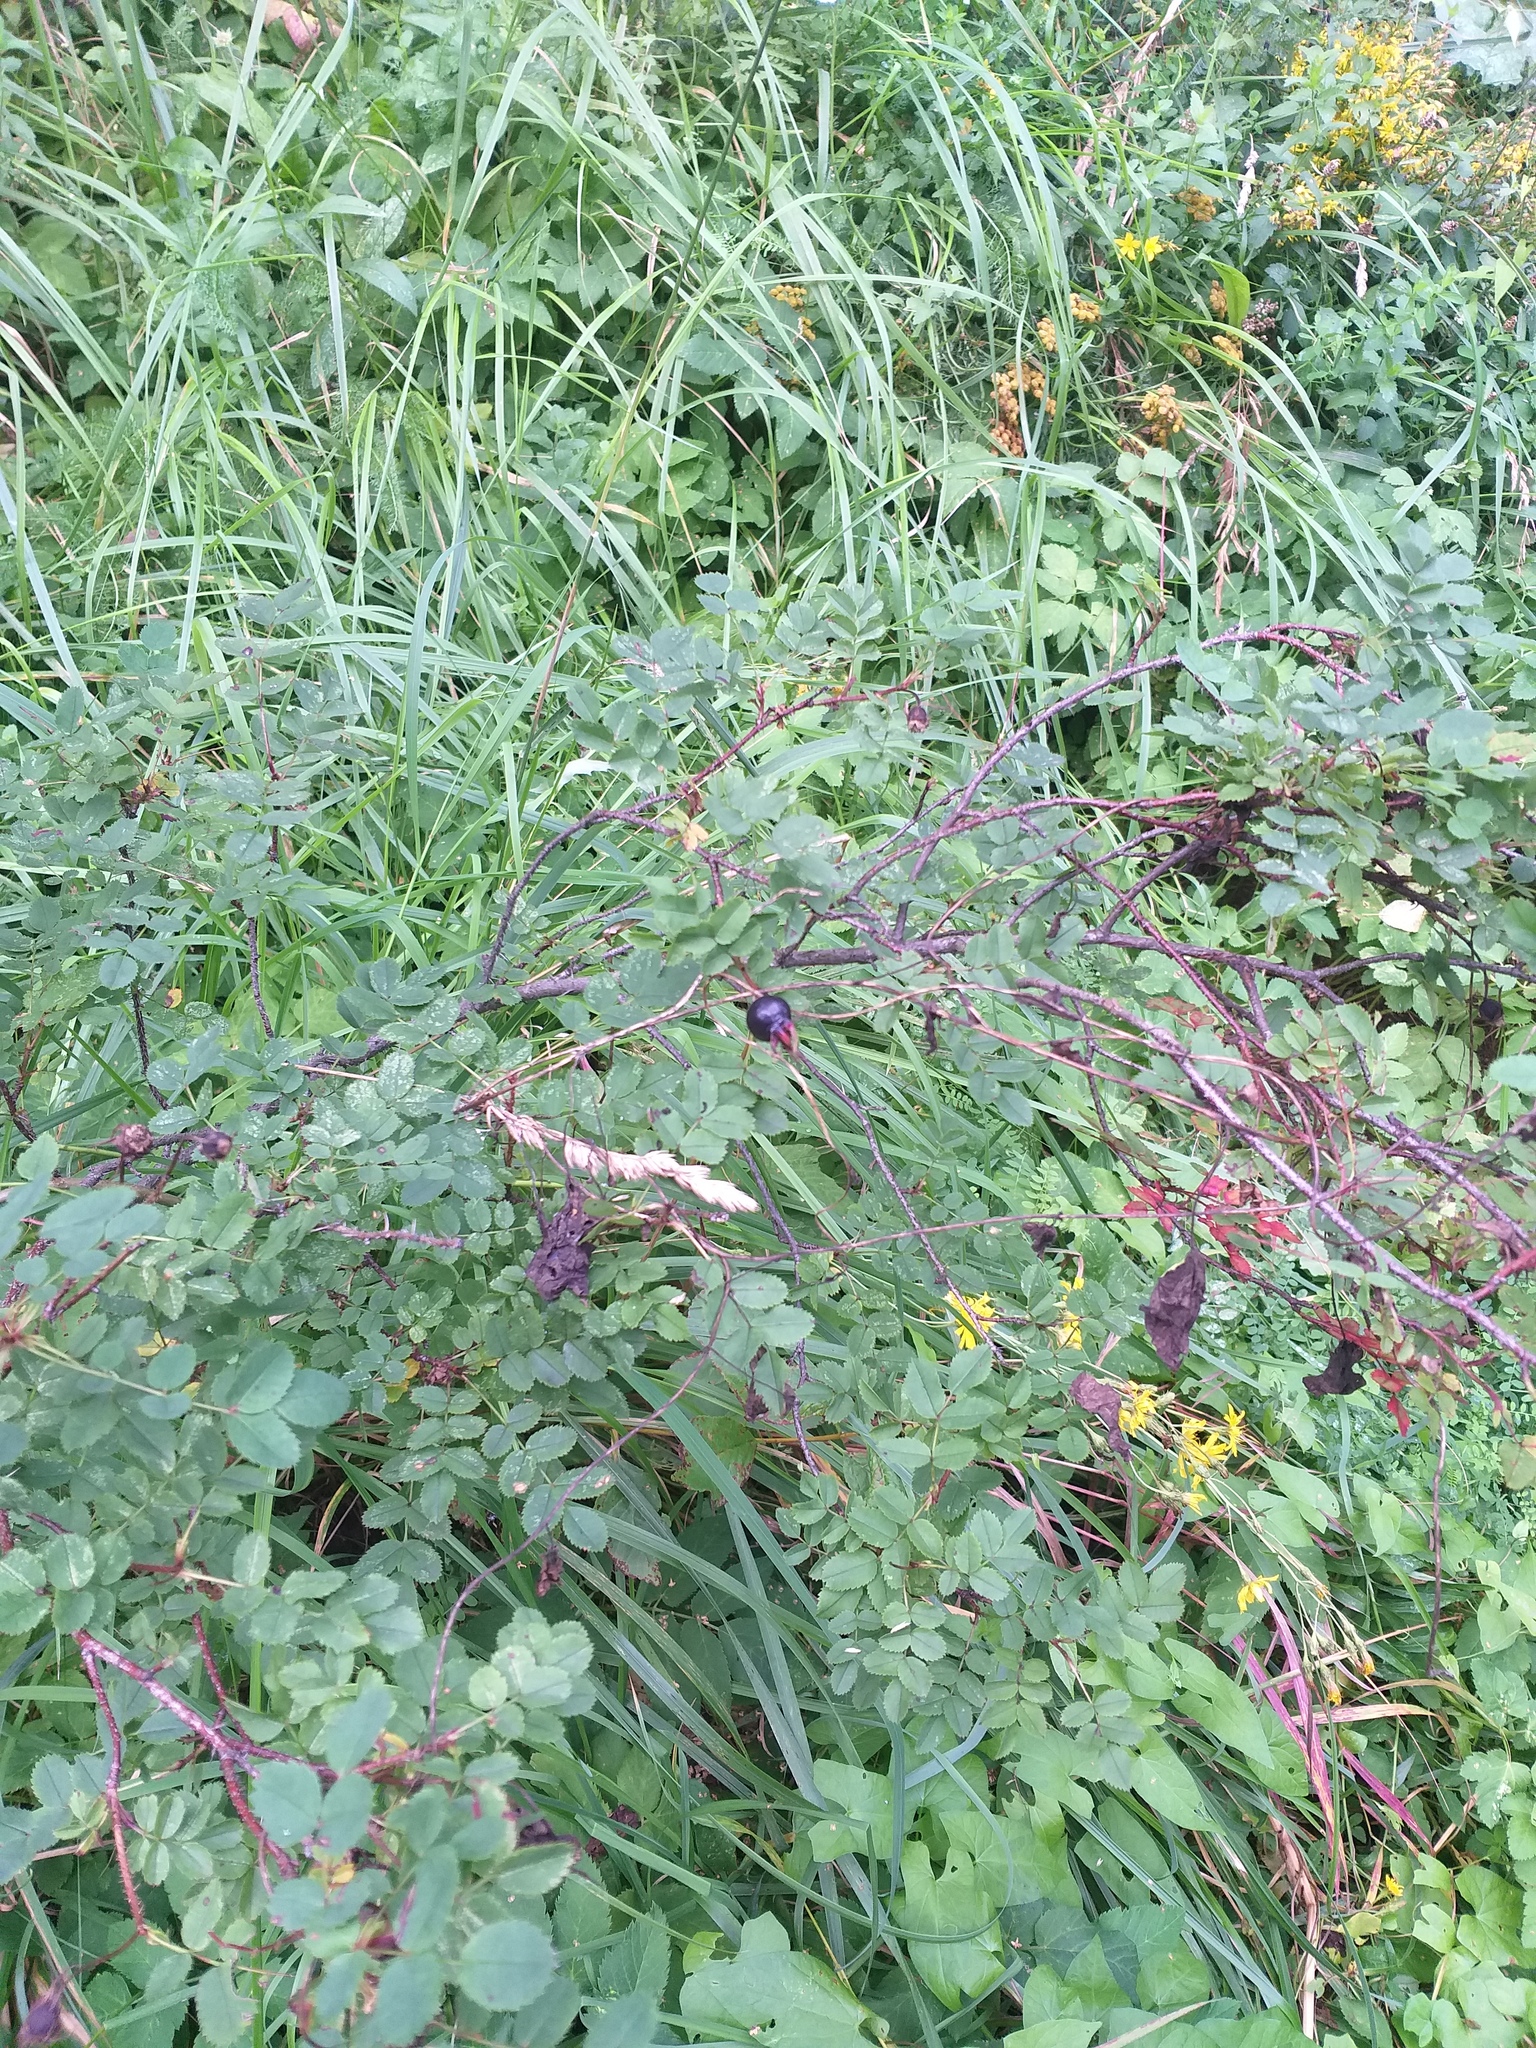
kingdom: Plantae
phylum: Tracheophyta
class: Magnoliopsida
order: Rosales
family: Rosaceae
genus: Rosa
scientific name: Rosa spinosissima
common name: Burnet rose
